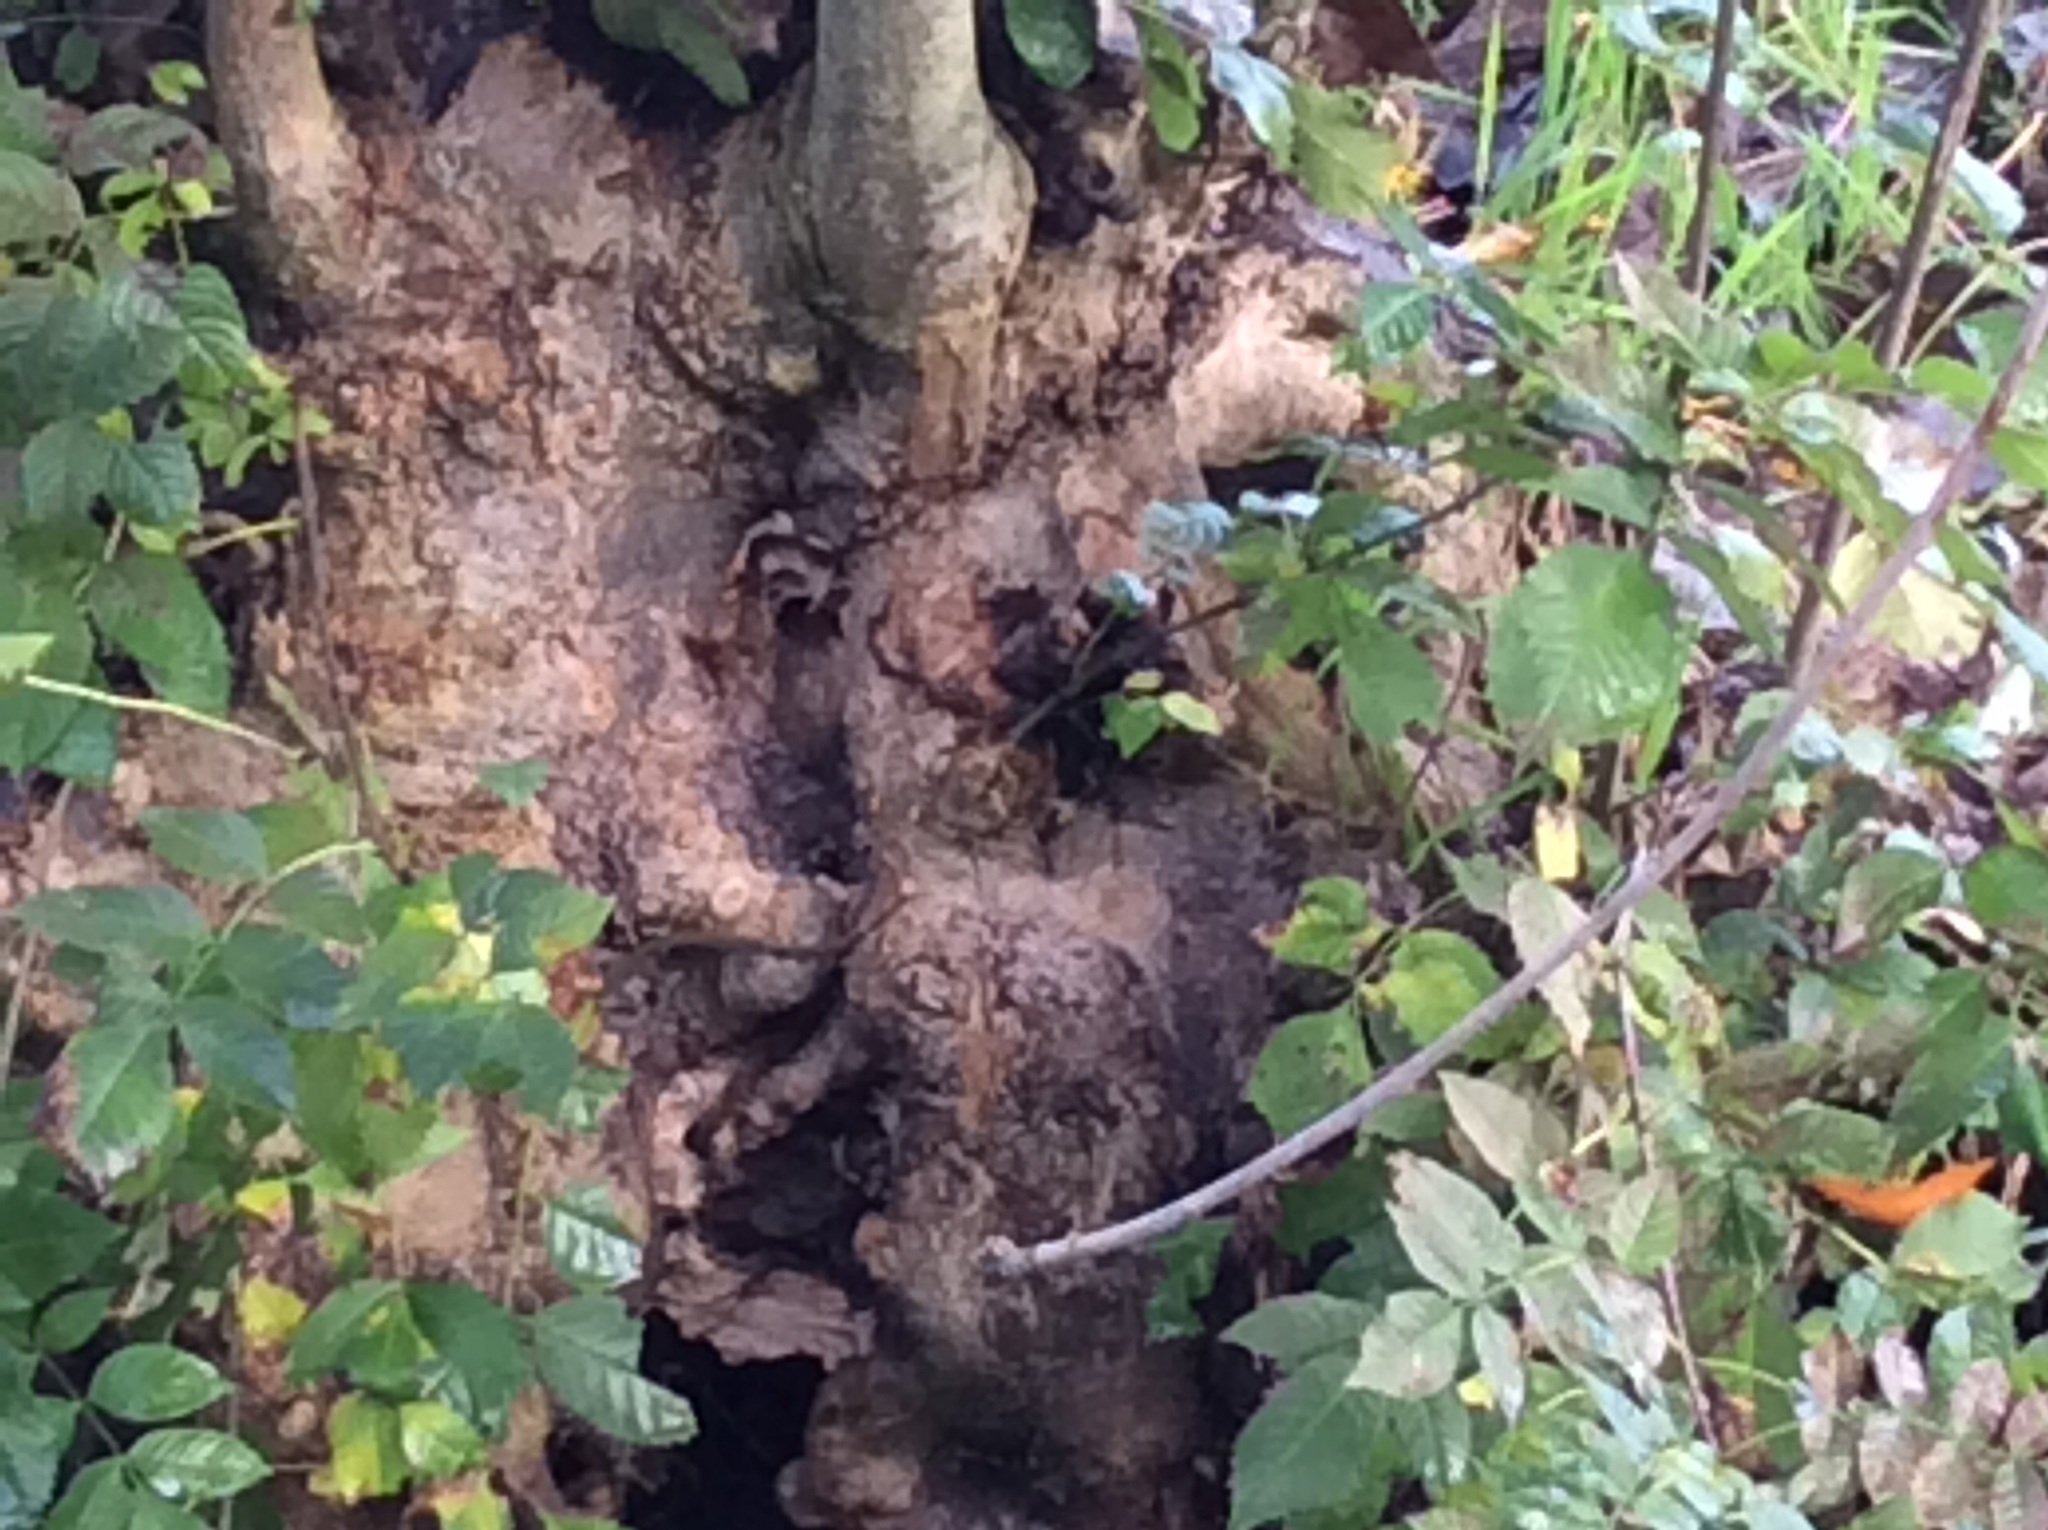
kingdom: Animalia
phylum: Arthropoda
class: Insecta
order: Hymenoptera
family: Vespidae
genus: Vespa
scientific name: Vespa crabro
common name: Hornet
